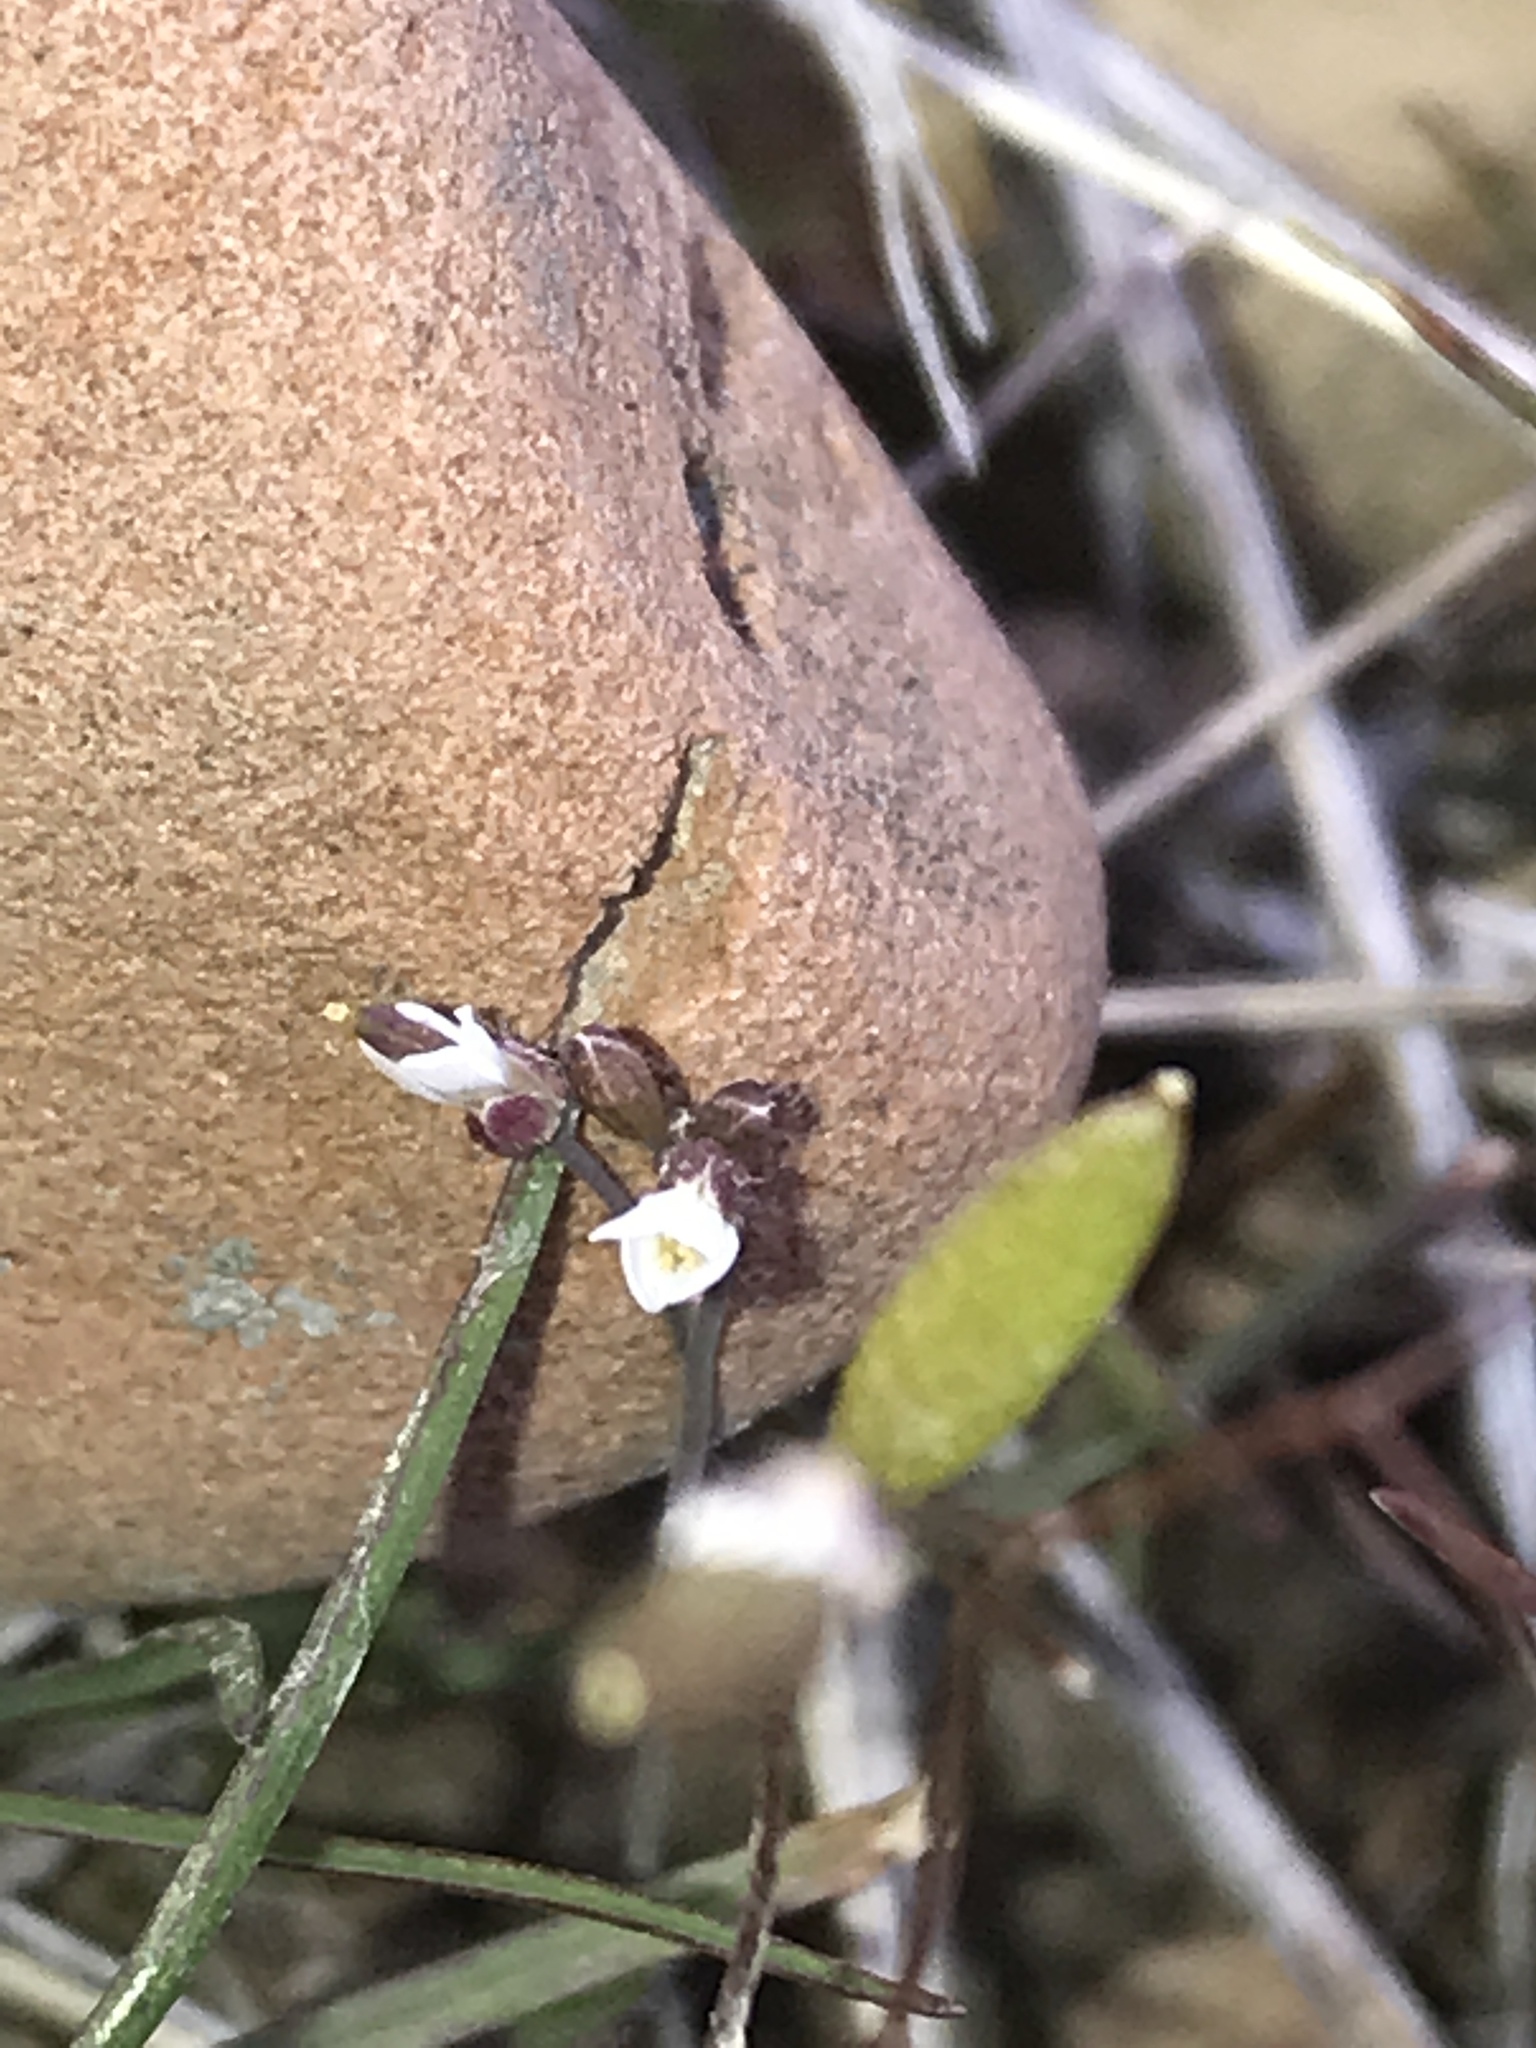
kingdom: Plantae
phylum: Tracheophyta
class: Magnoliopsida
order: Brassicales
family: Brassicaceae
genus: Draba
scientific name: Draba verna
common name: Spring draba
